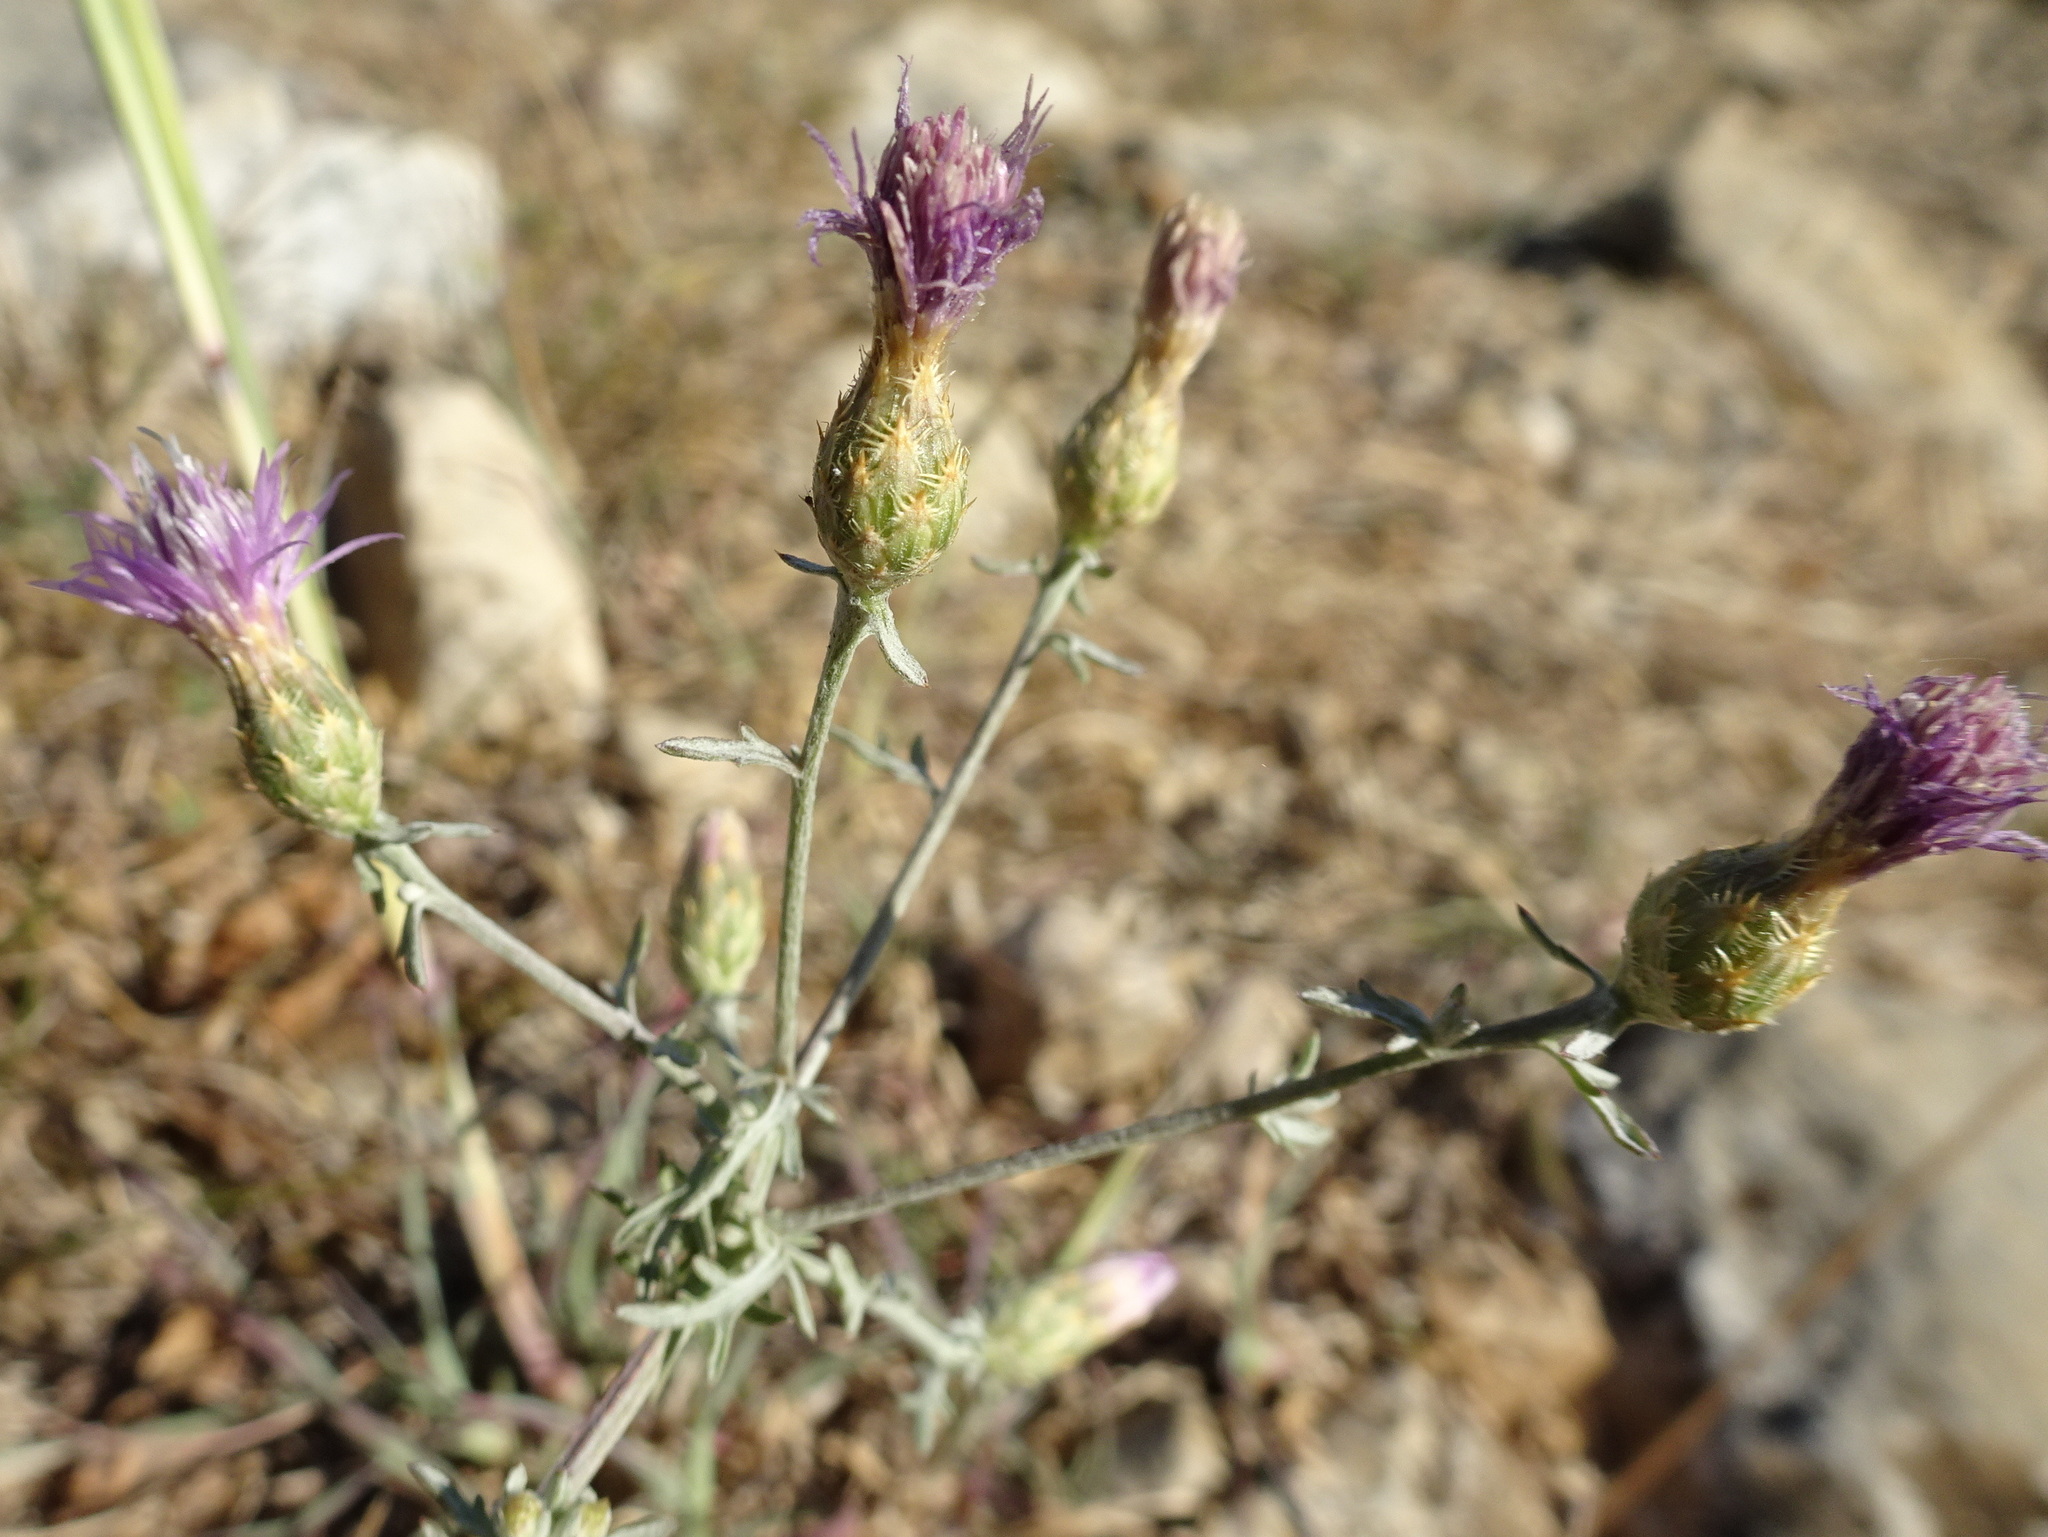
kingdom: Plantae
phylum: Tracheophyta
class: Magnoliopsida
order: Asterales
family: Asteraceae
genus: Centaurea
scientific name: Centaurea paniculata
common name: Jersey knapweed
